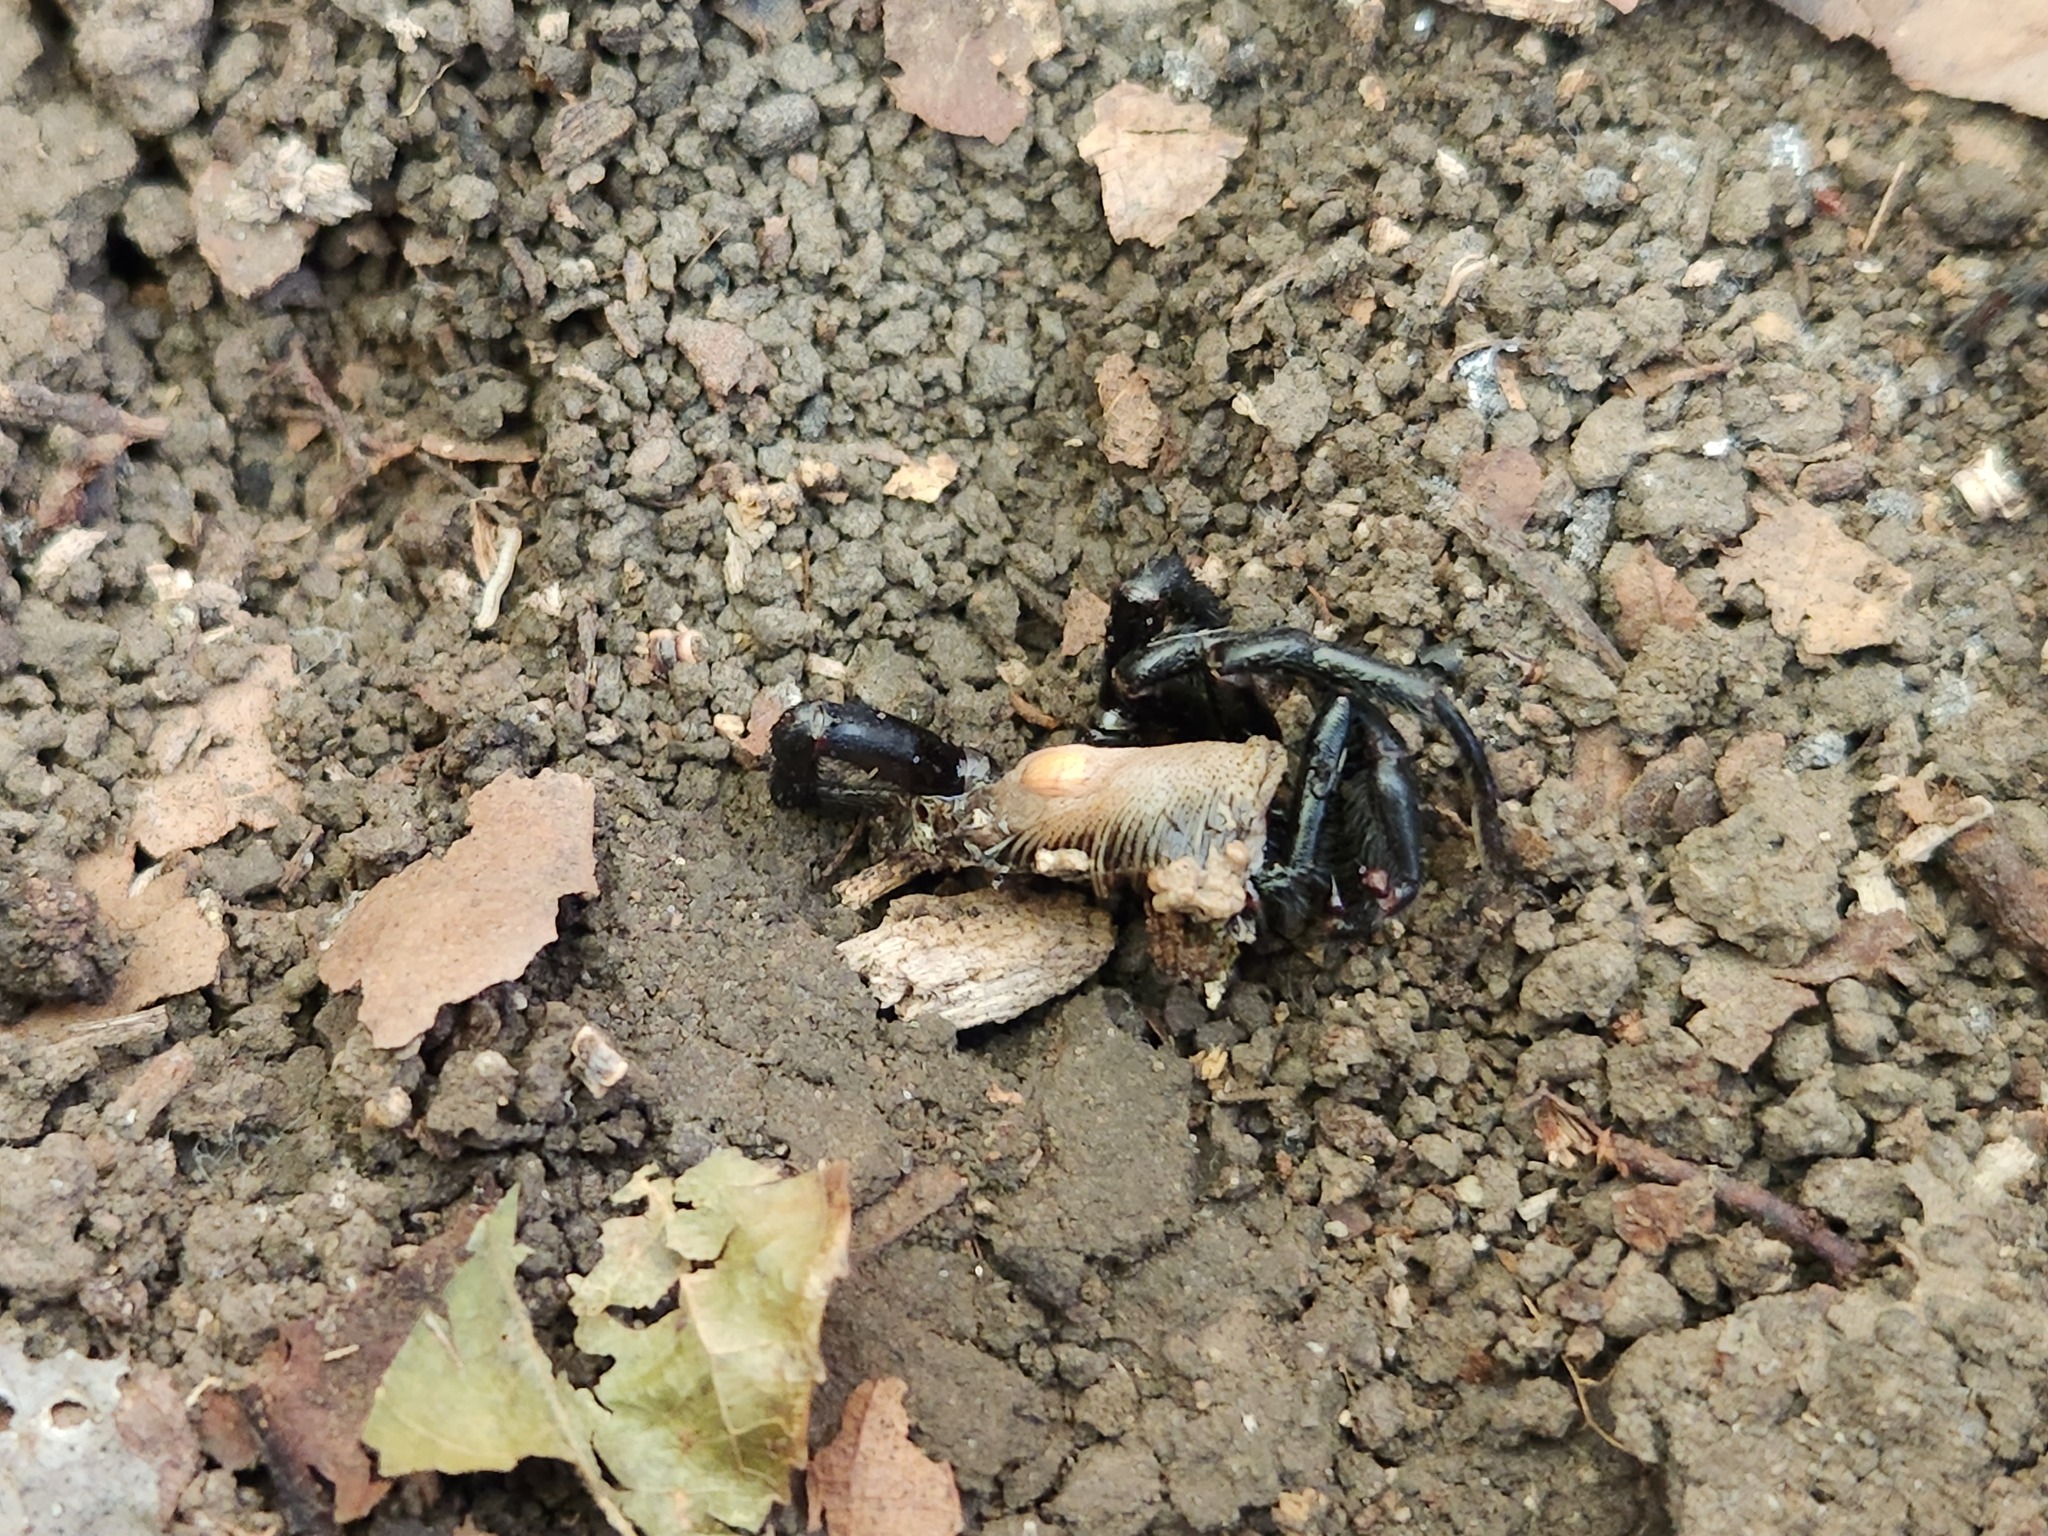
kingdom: Animalia
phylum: Arthropoda
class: Arachnida
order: Araneae
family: Atypidae
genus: Sphodros
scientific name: Sphodros niger
